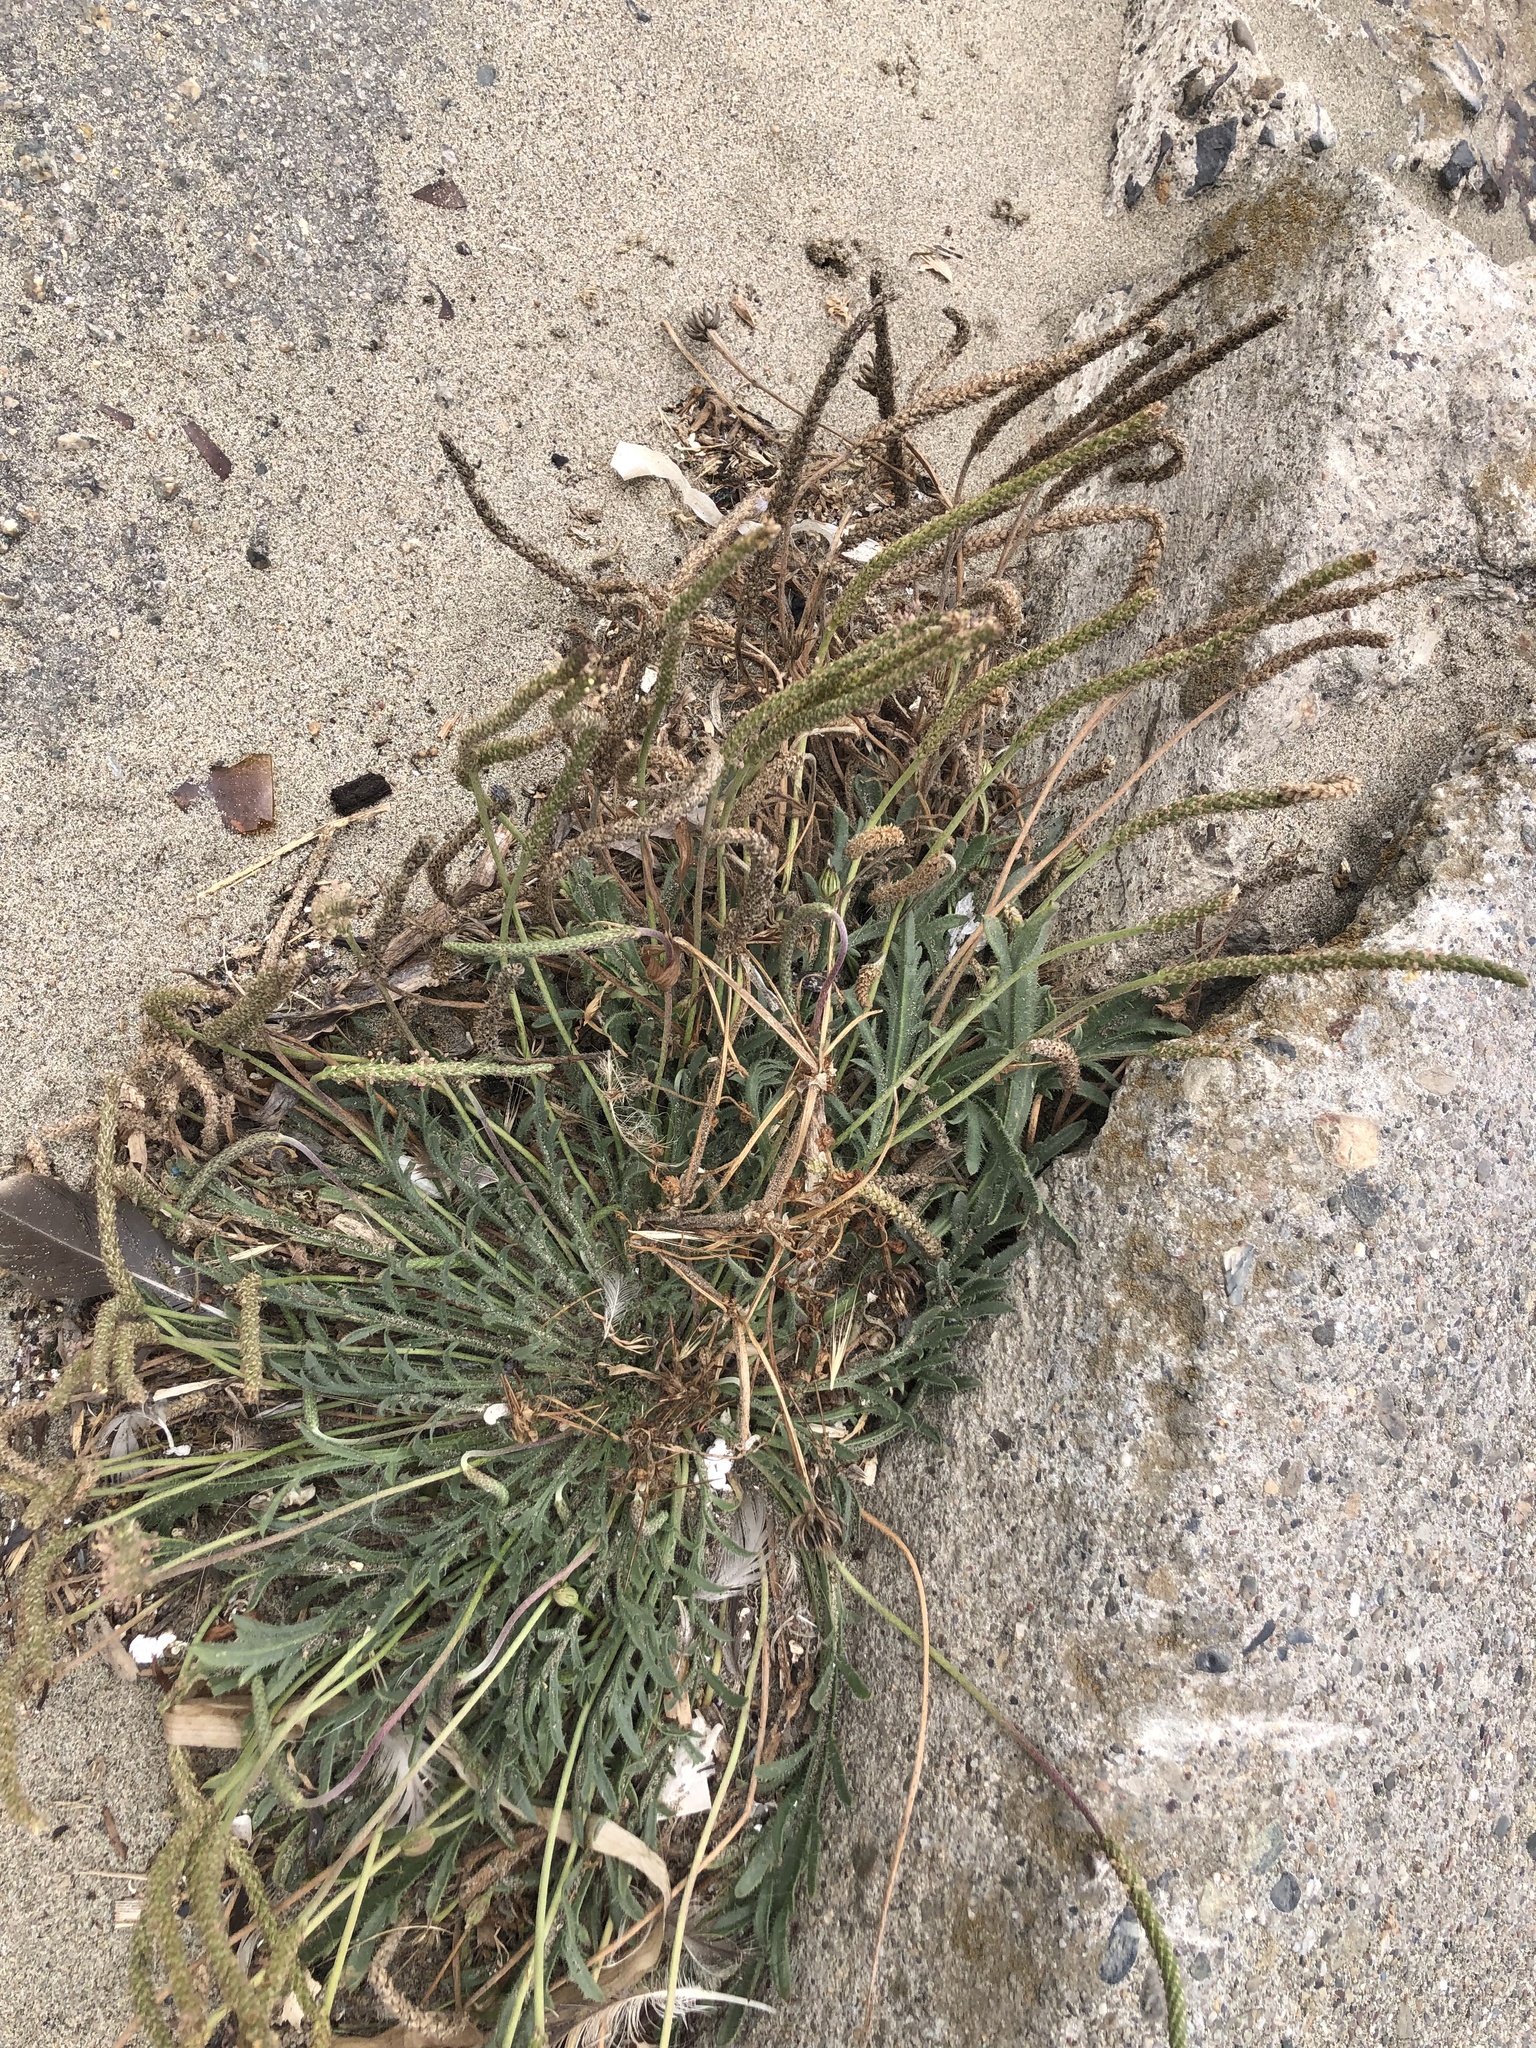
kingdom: Plantae
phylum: Tracheophyta
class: Magnoliopsida
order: Lamiales
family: Plantaginaceae
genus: Plantago
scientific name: Plantago coronopus
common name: Buck's-horn plantain
